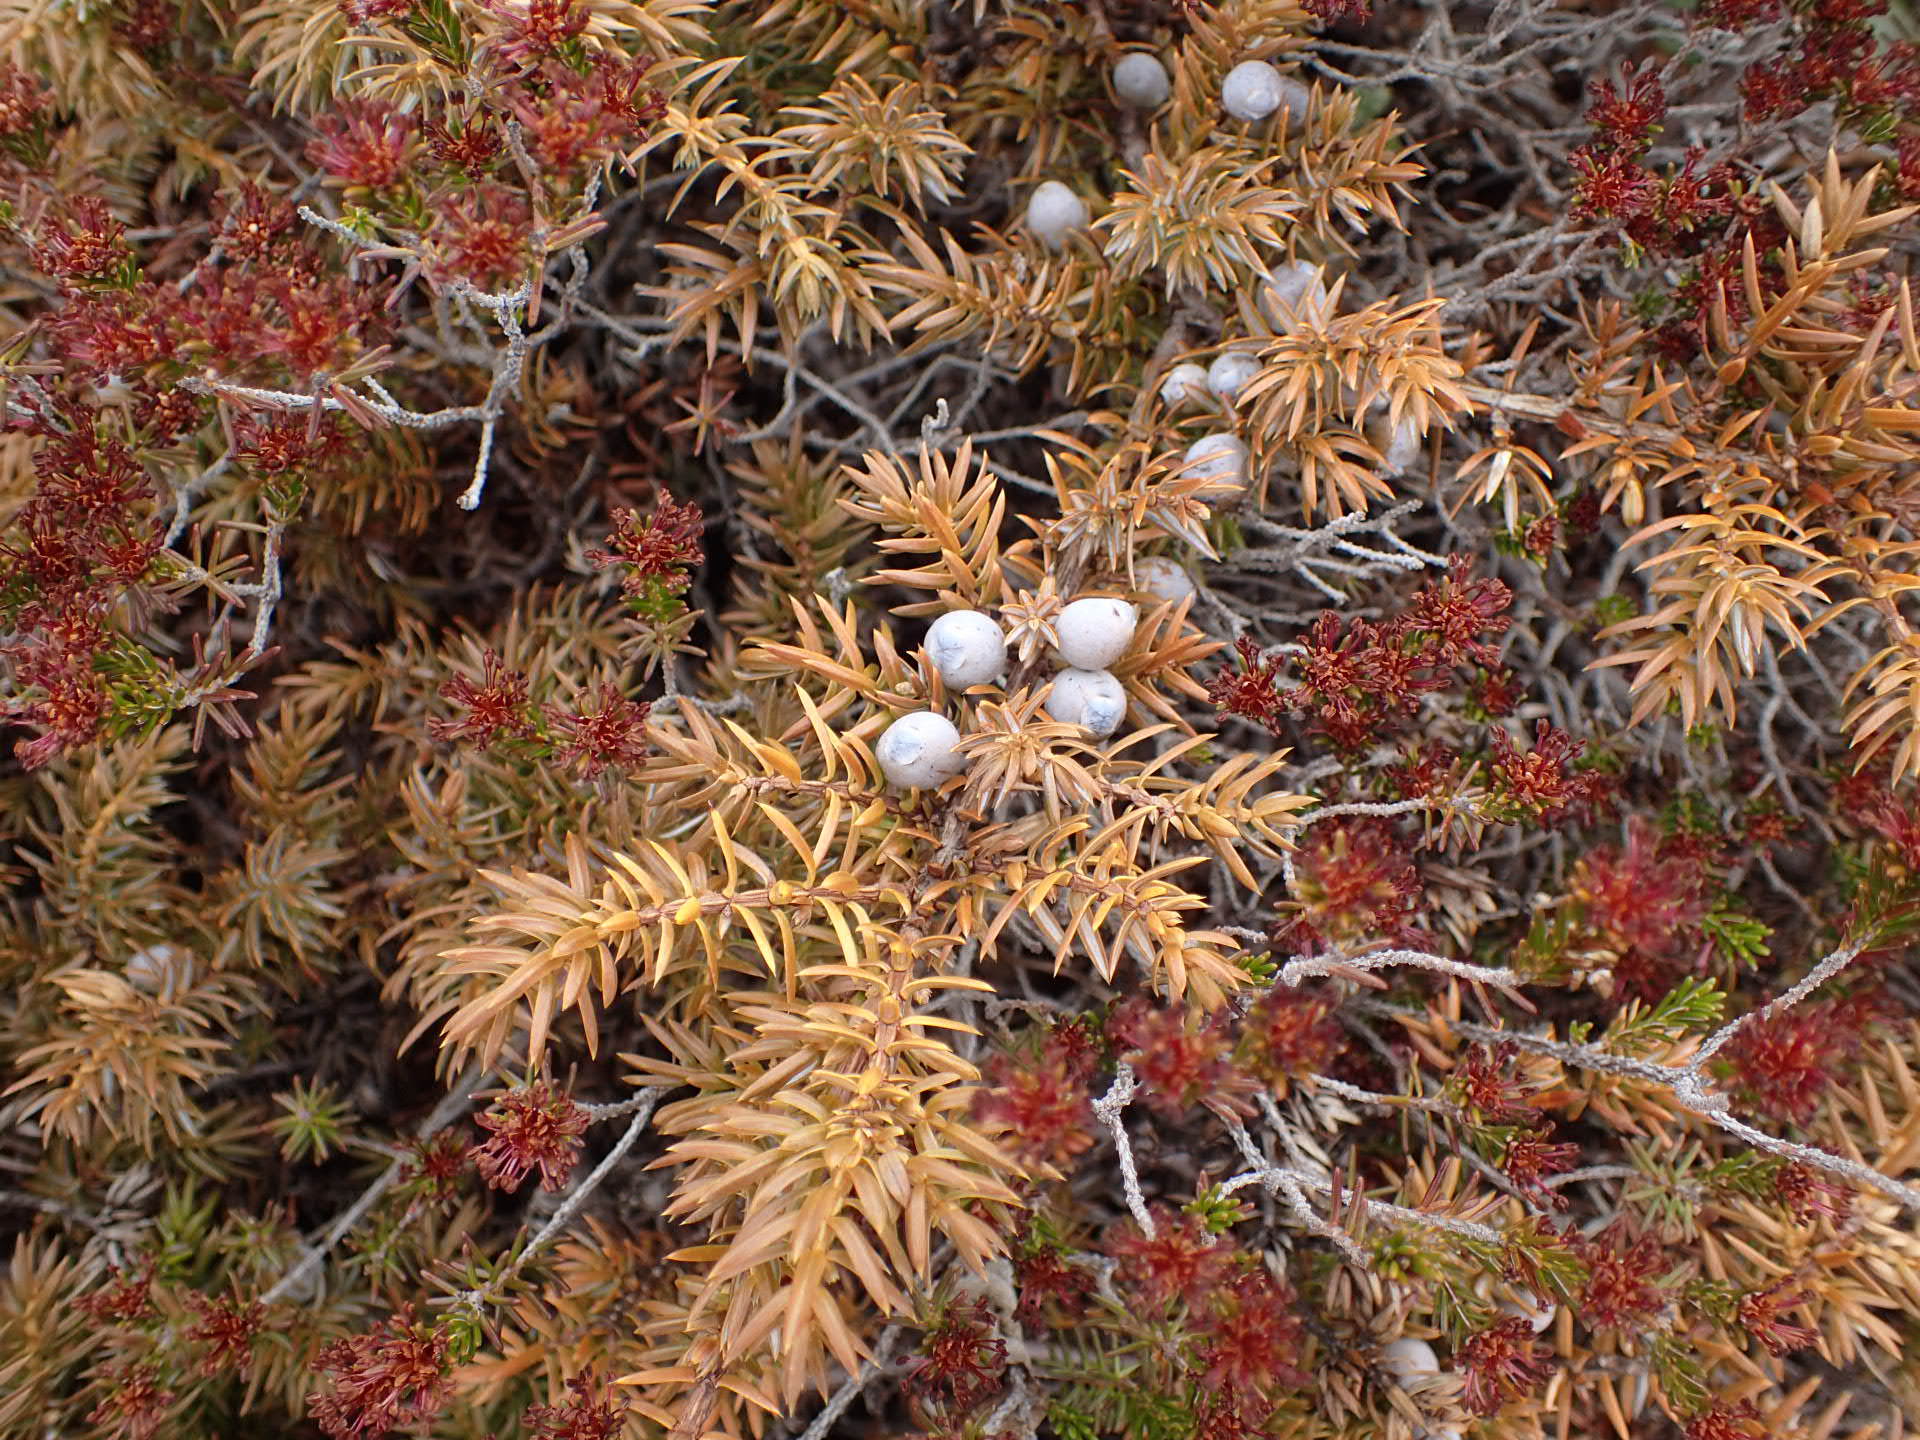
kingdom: Plantae
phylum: Tracheophyta
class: Pinopsida
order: Pinales
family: Cupressaceae
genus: Juniperus
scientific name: Juniperus communis
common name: Common juniper
